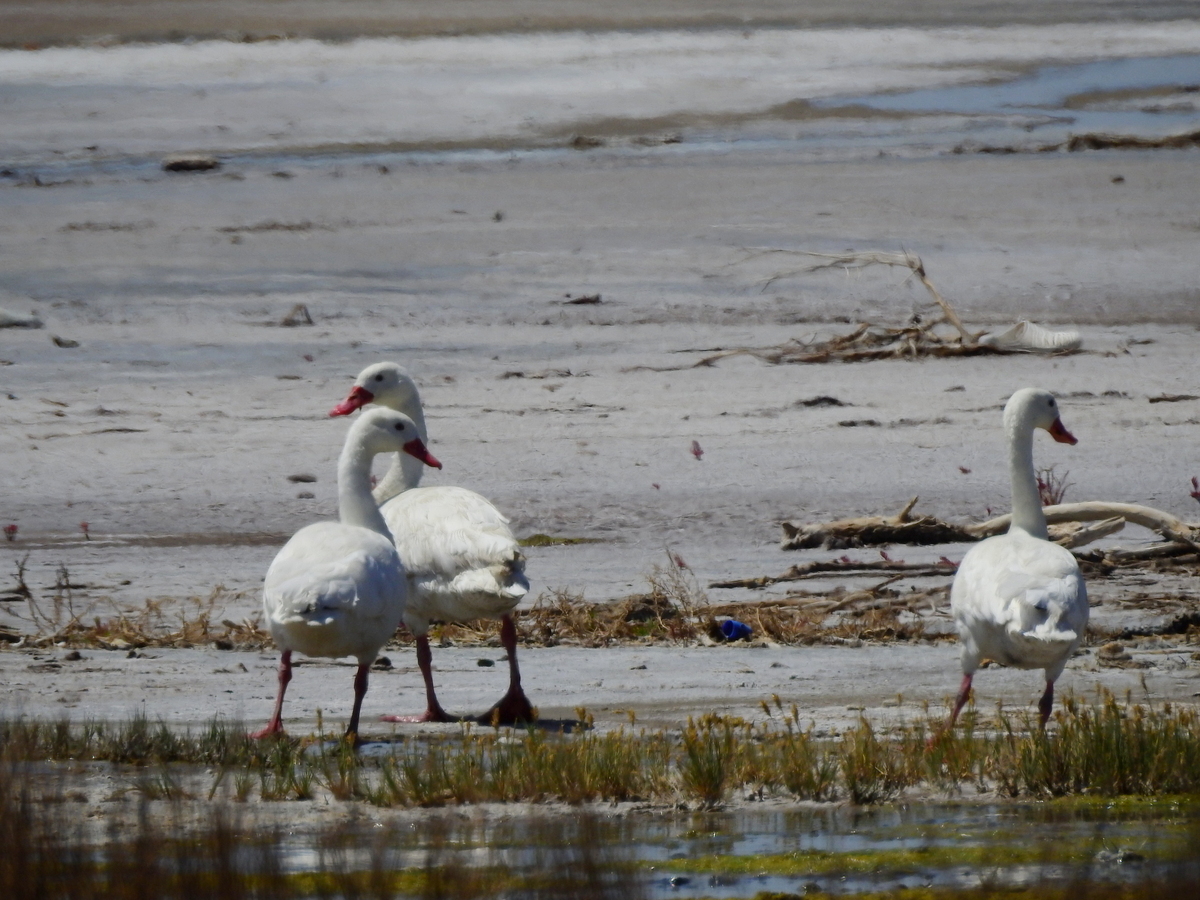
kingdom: Animalia
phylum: Chordata
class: Aves
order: Anseriformes
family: Anatidae
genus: Coscoroba
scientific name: Coscoroba coscoroba
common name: Coscoroba swan
